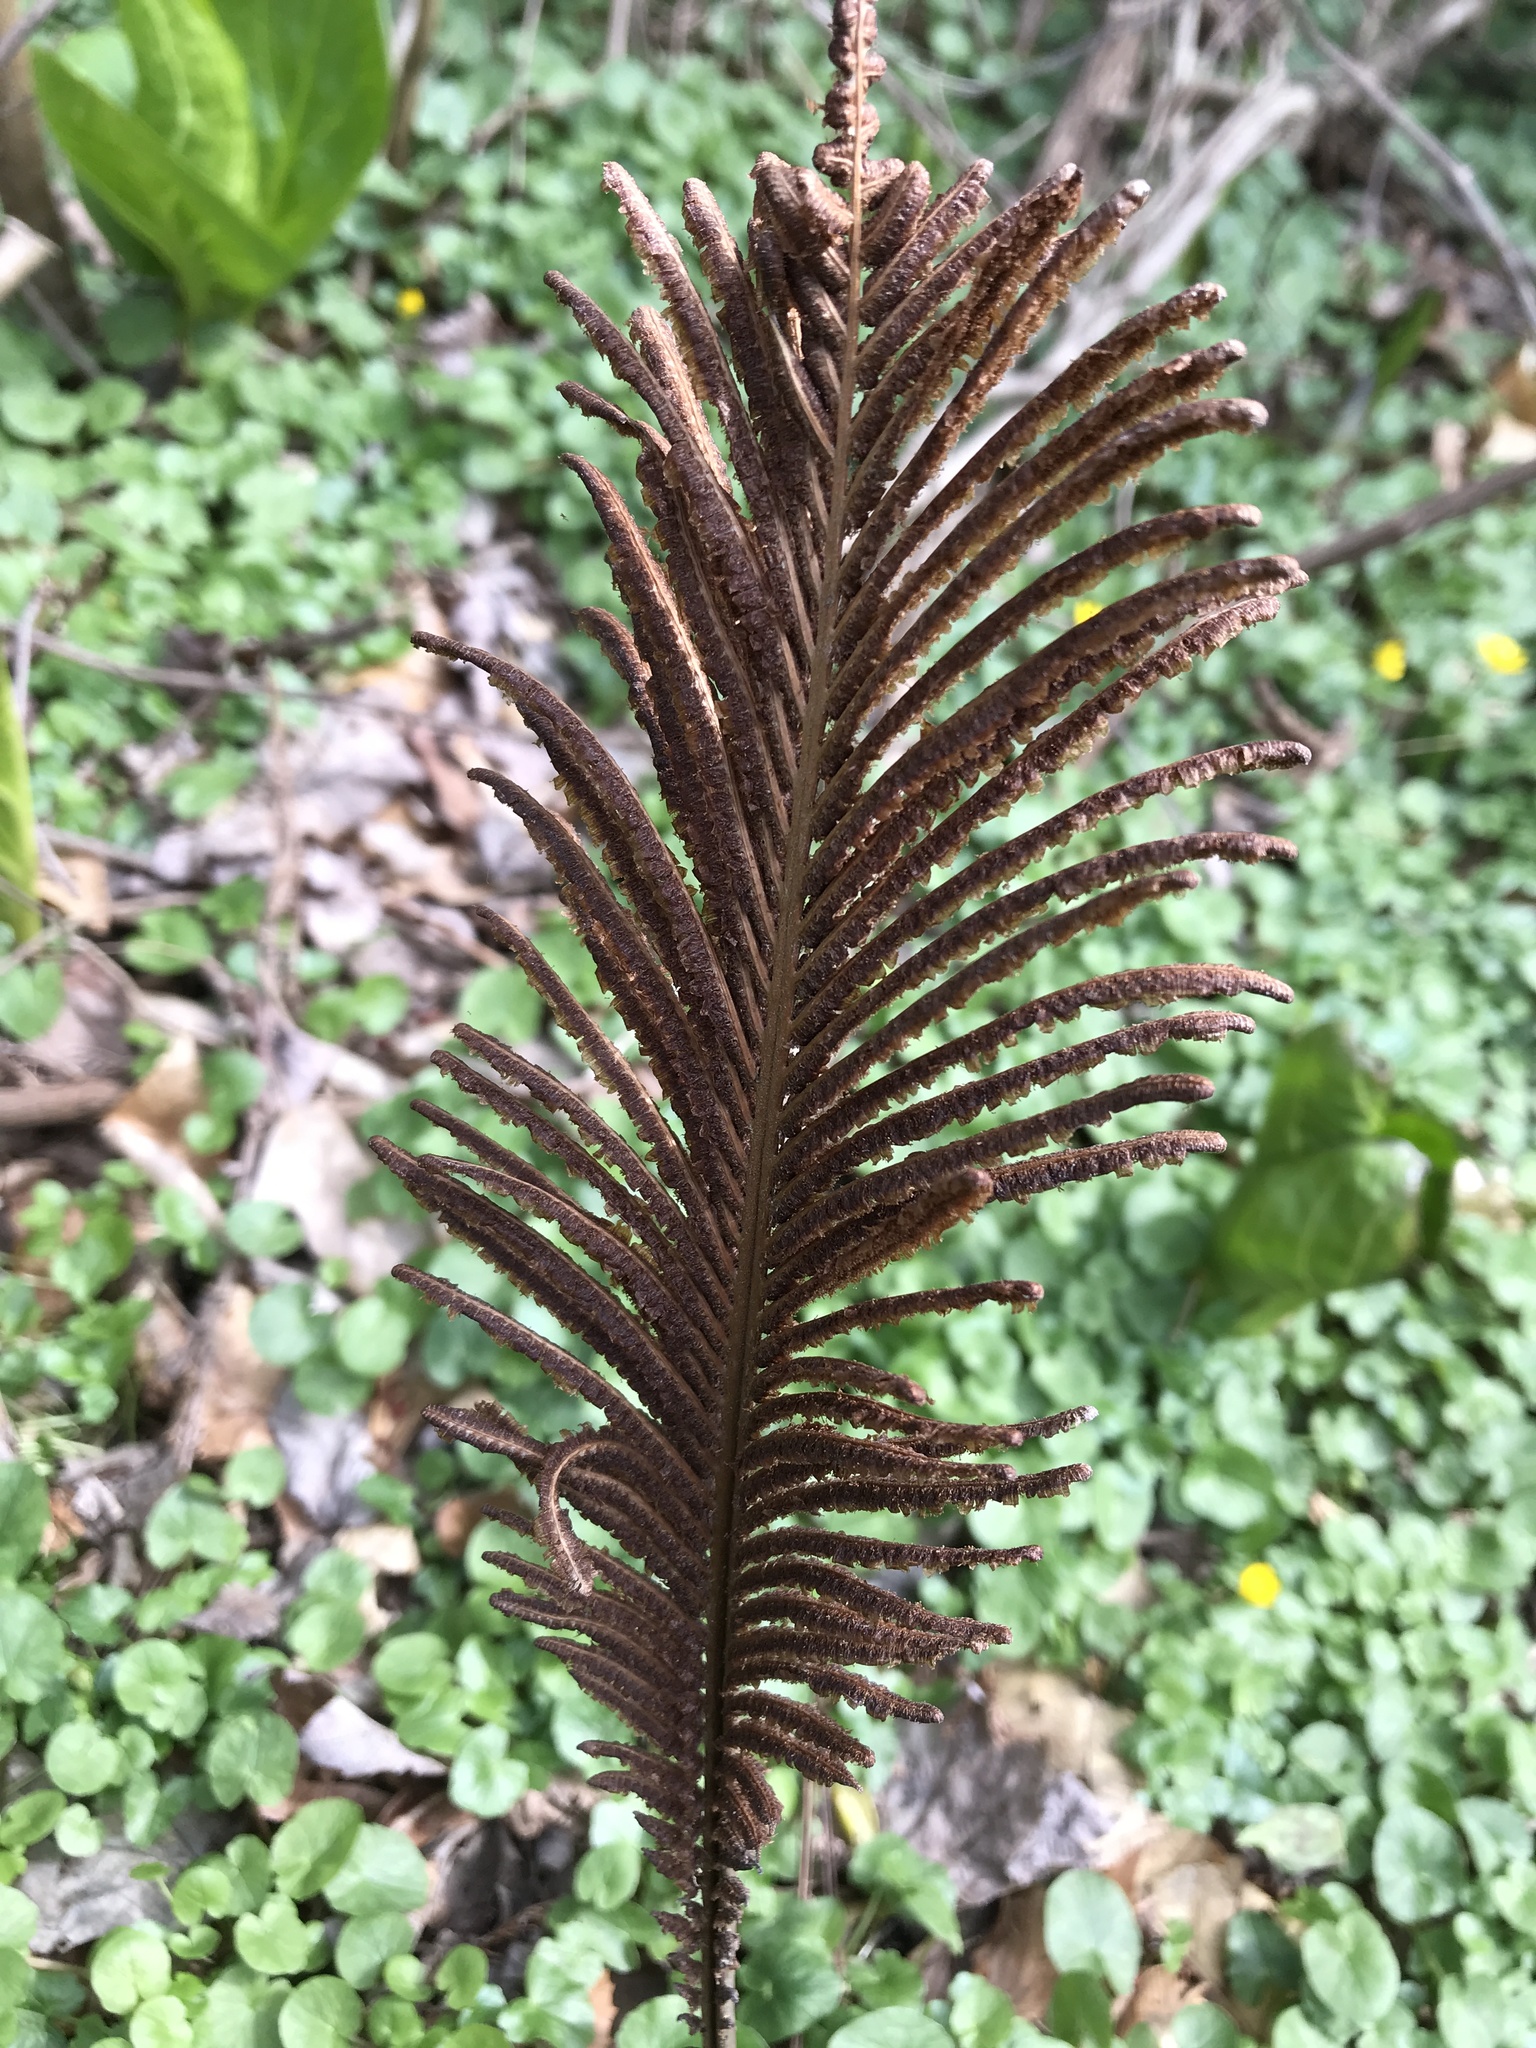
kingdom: Plantae
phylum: Tracheophyta
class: Polypodiopsida
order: Polypodiales
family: Onocleaceae
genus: Matteuccia
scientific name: Matteuccia struthiopteris
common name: Ostrich fern
